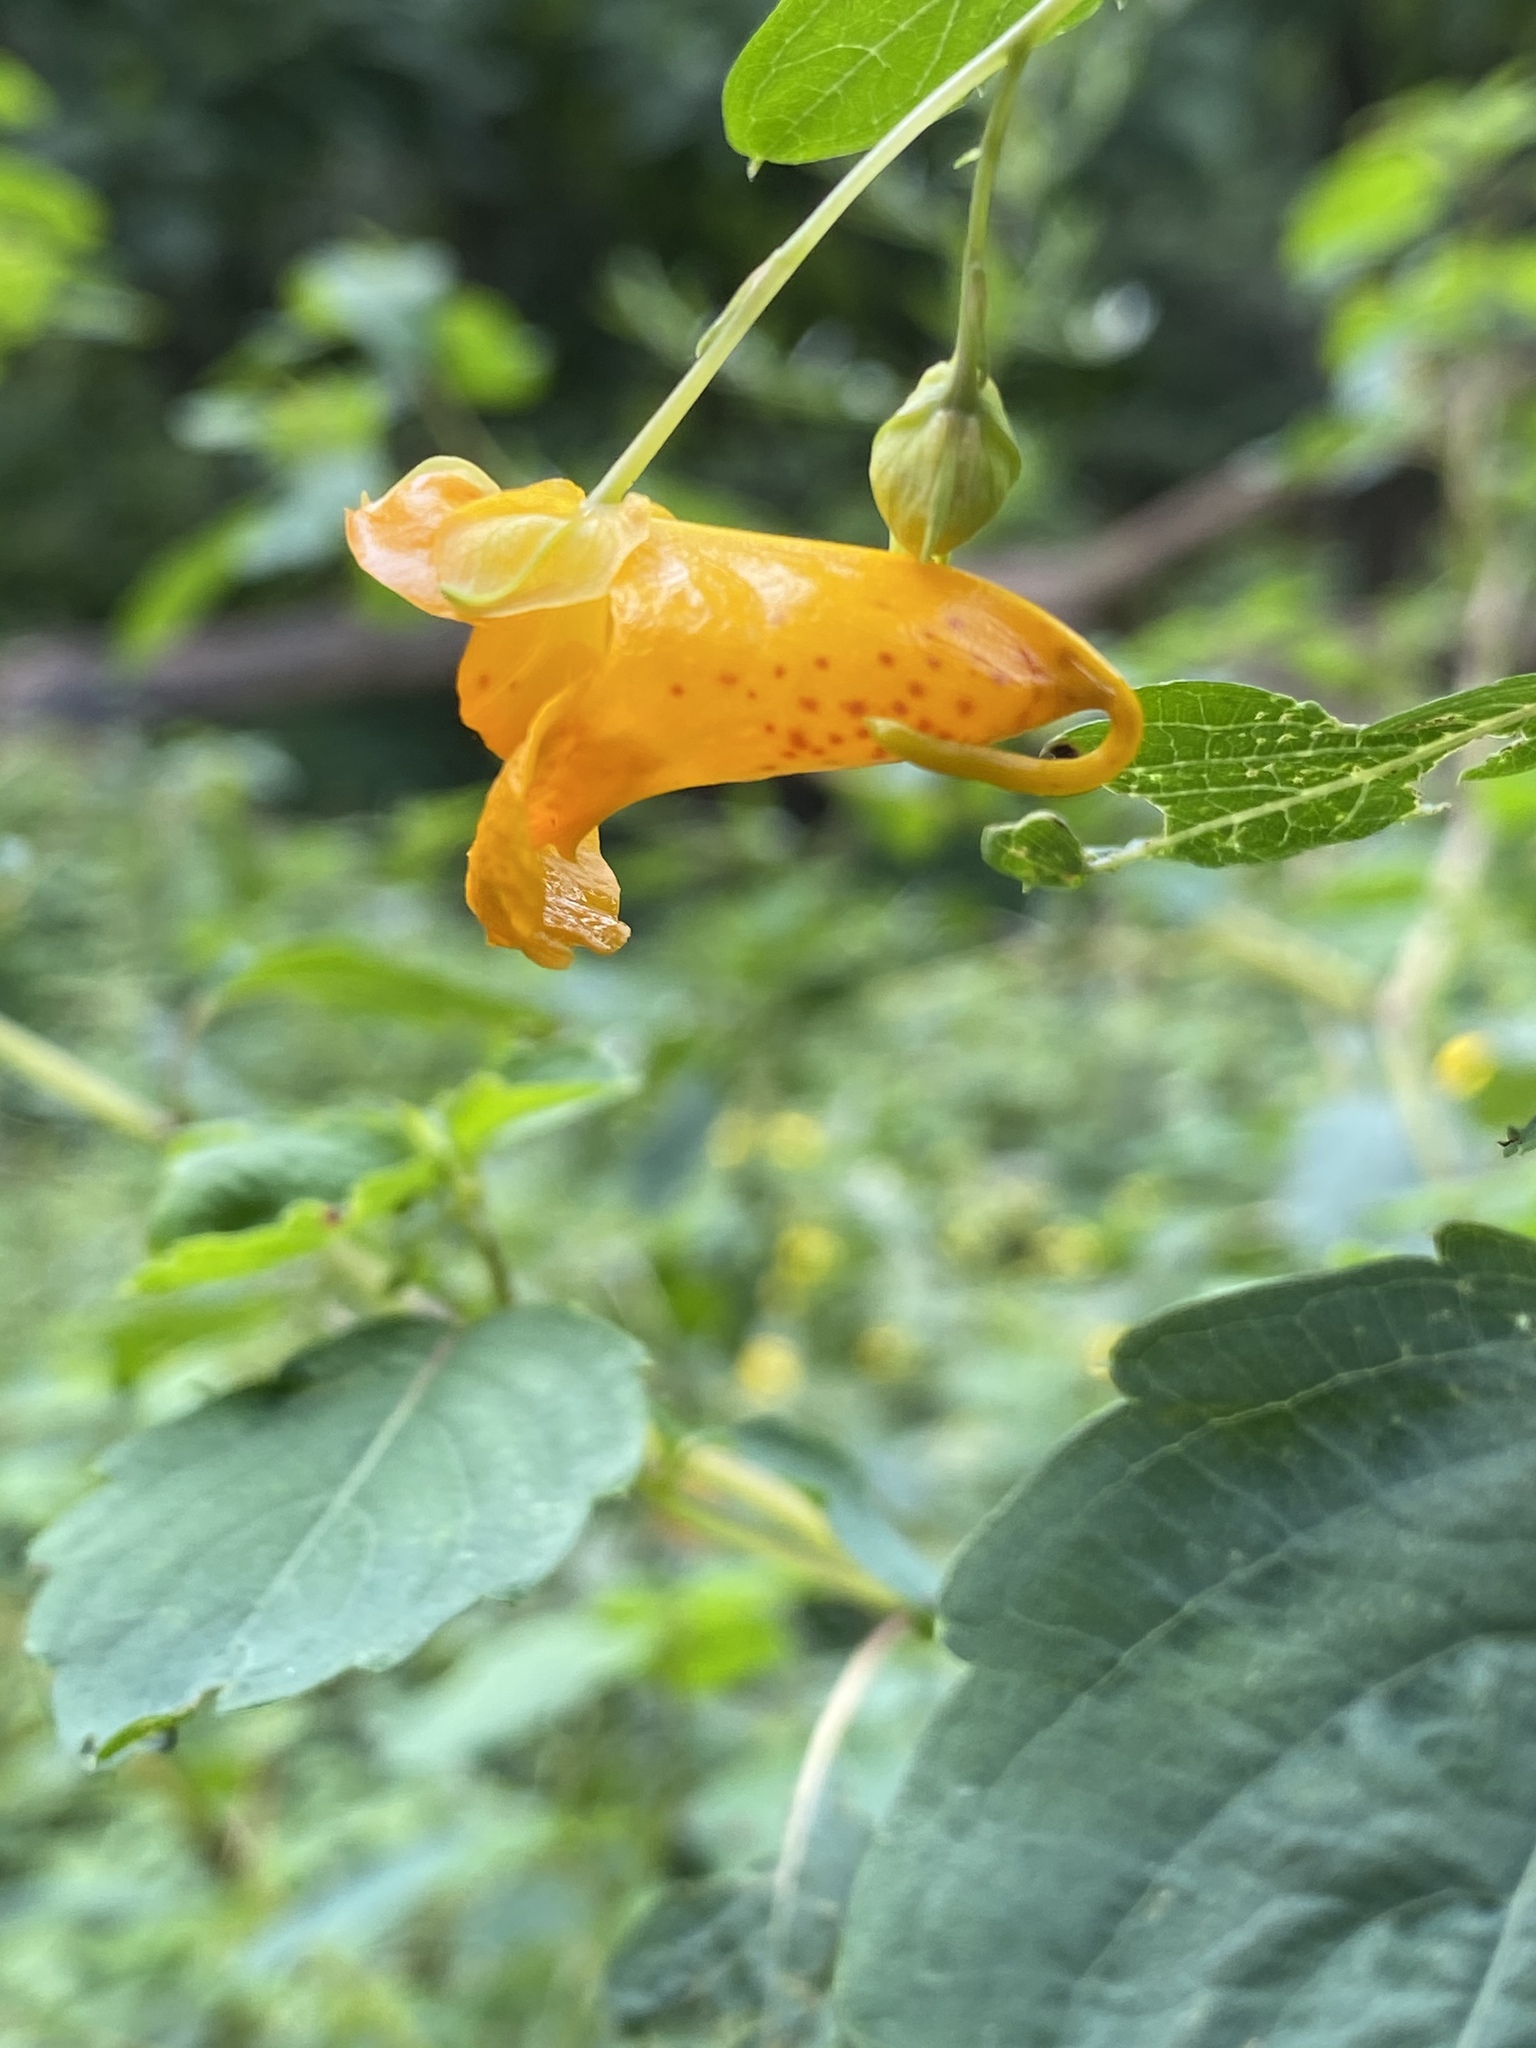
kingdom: Plantae
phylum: Tracheophyta
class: Magnoliopsida
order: Ericales
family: Balsaminaceae
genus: Impatiens
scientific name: Impatiens capensis
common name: Orange balsam
